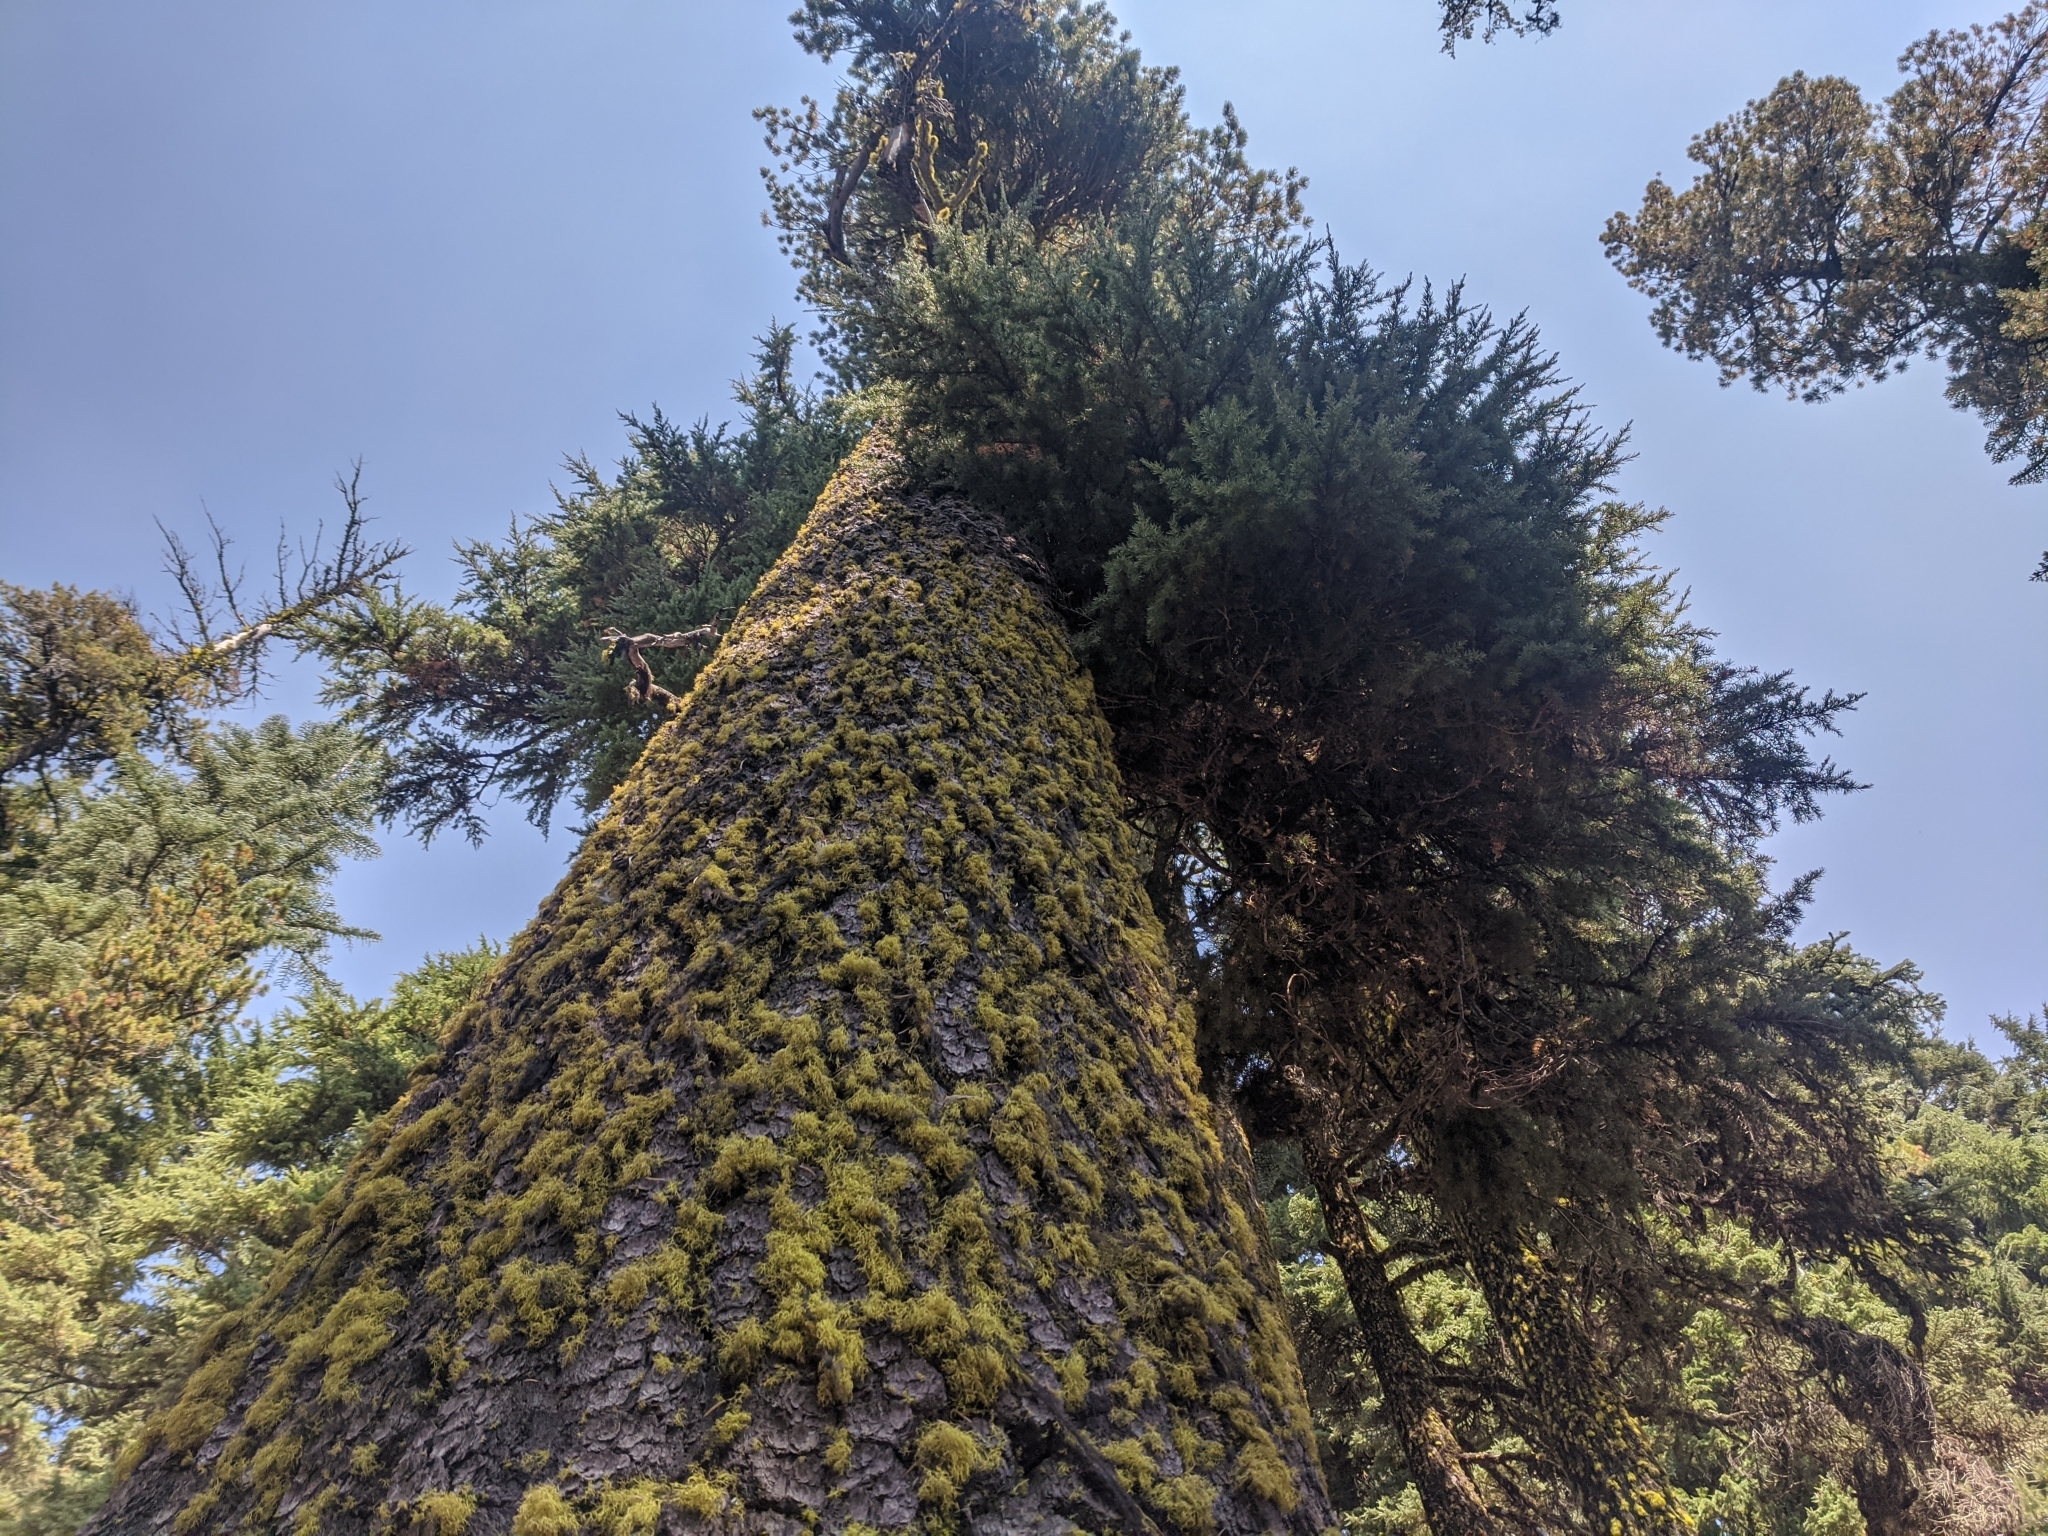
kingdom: Plantae
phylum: Tracheophyta
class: Pinopsida
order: Pinales
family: Pinaceae
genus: Tsuga
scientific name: Tsuga mertensiana
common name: Mountain hemlock
